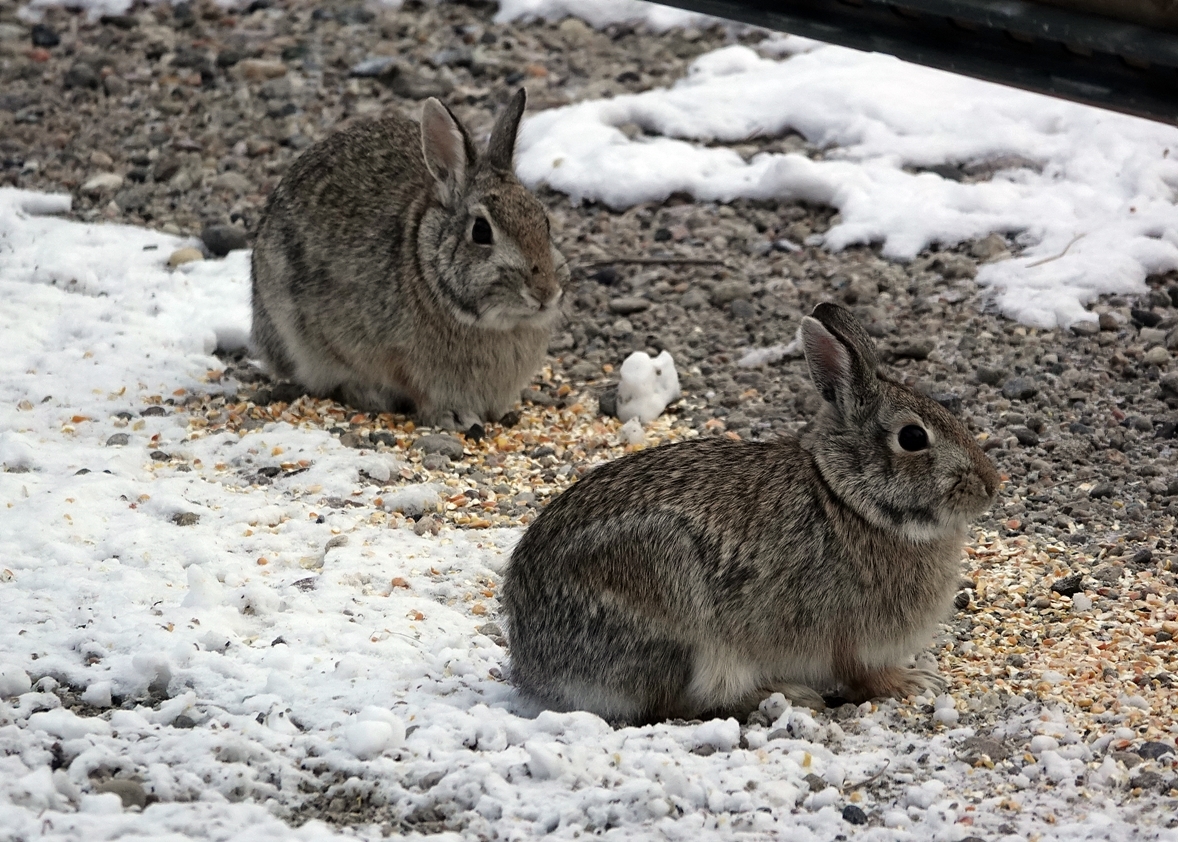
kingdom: Animalia
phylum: Chordata
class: Mammalia
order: Lagomorpha
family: Leporidae
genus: Sylvilagus
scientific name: Sylvilagus floridanus
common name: Eastern cottontail
